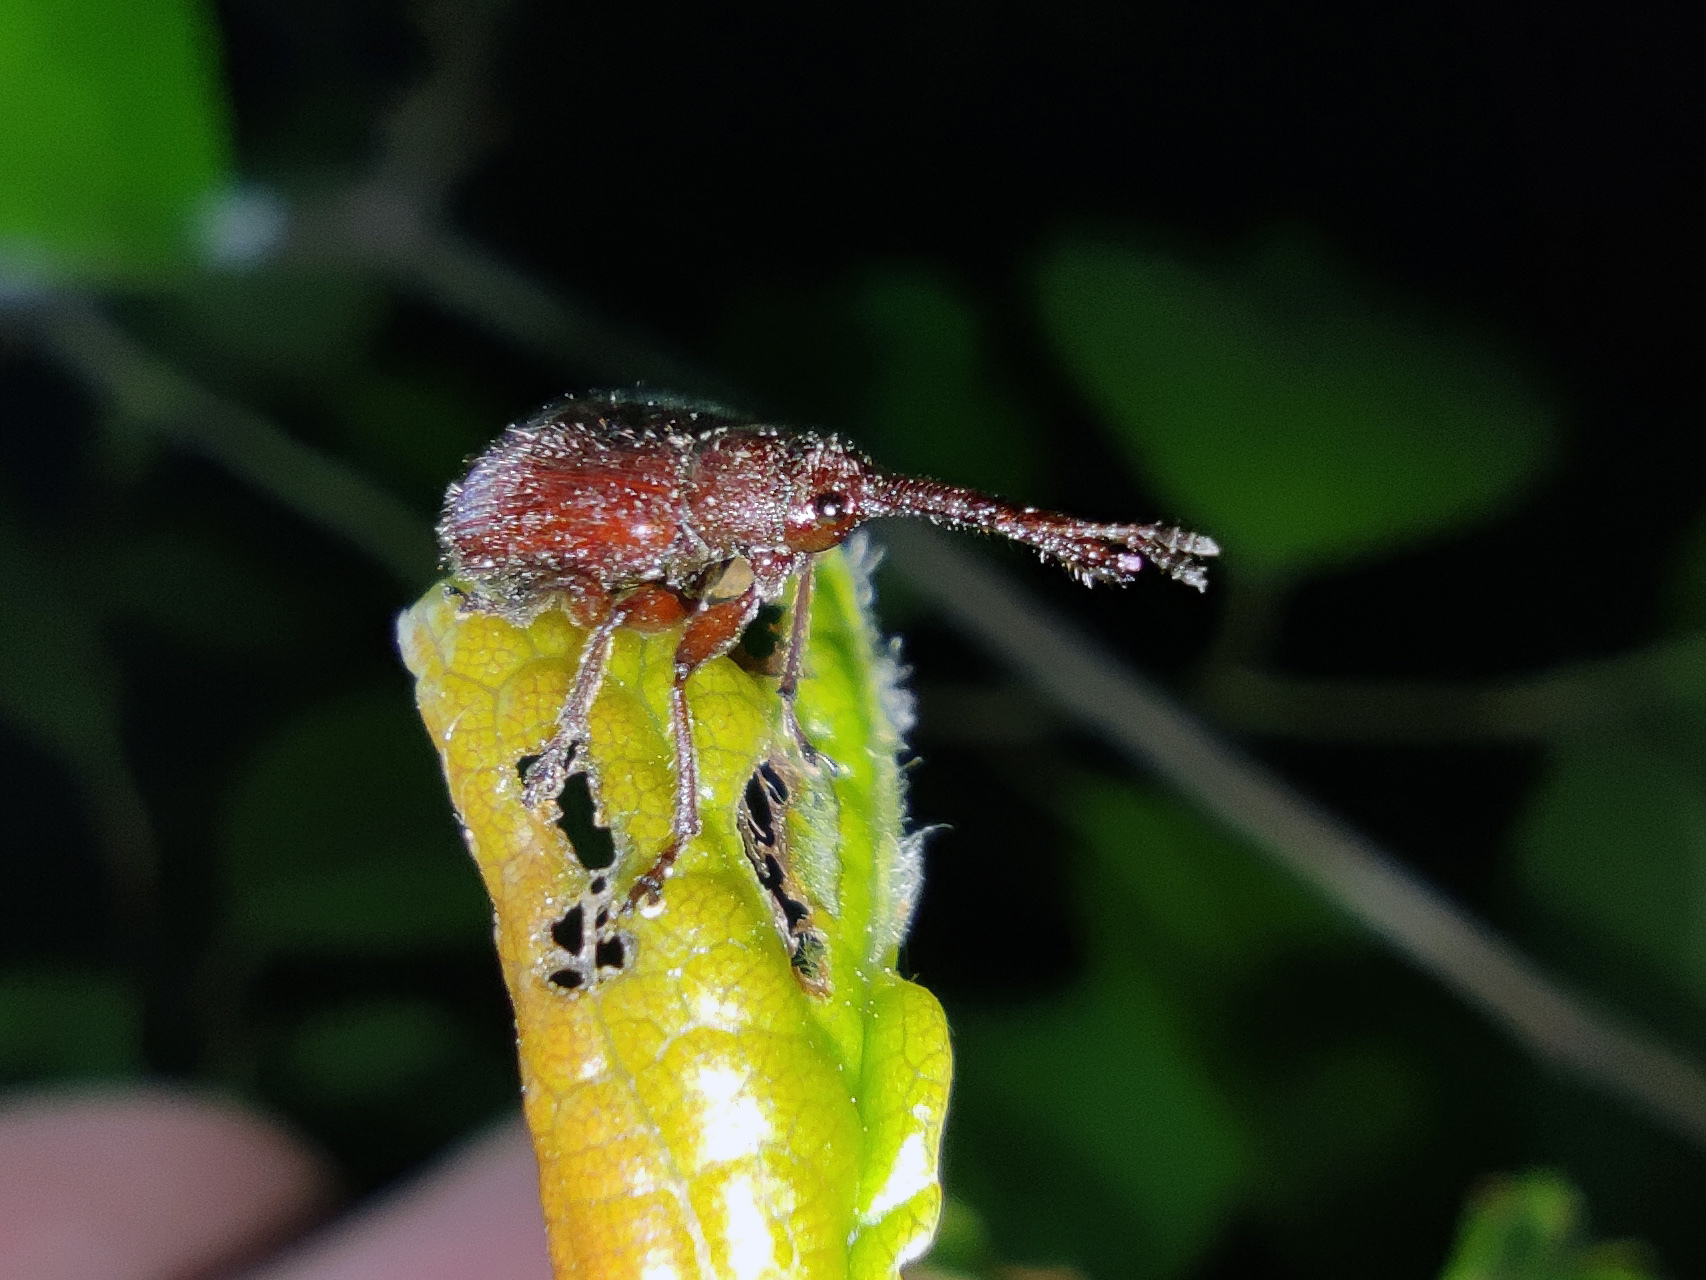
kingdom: Animalia
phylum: Arthropoda
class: Insecta
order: Coleoptera
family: Rhynchitidae
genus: Tatianaerhynchites
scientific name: Tatianaerhynchites aequatus
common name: Apple fruit rhynchites
